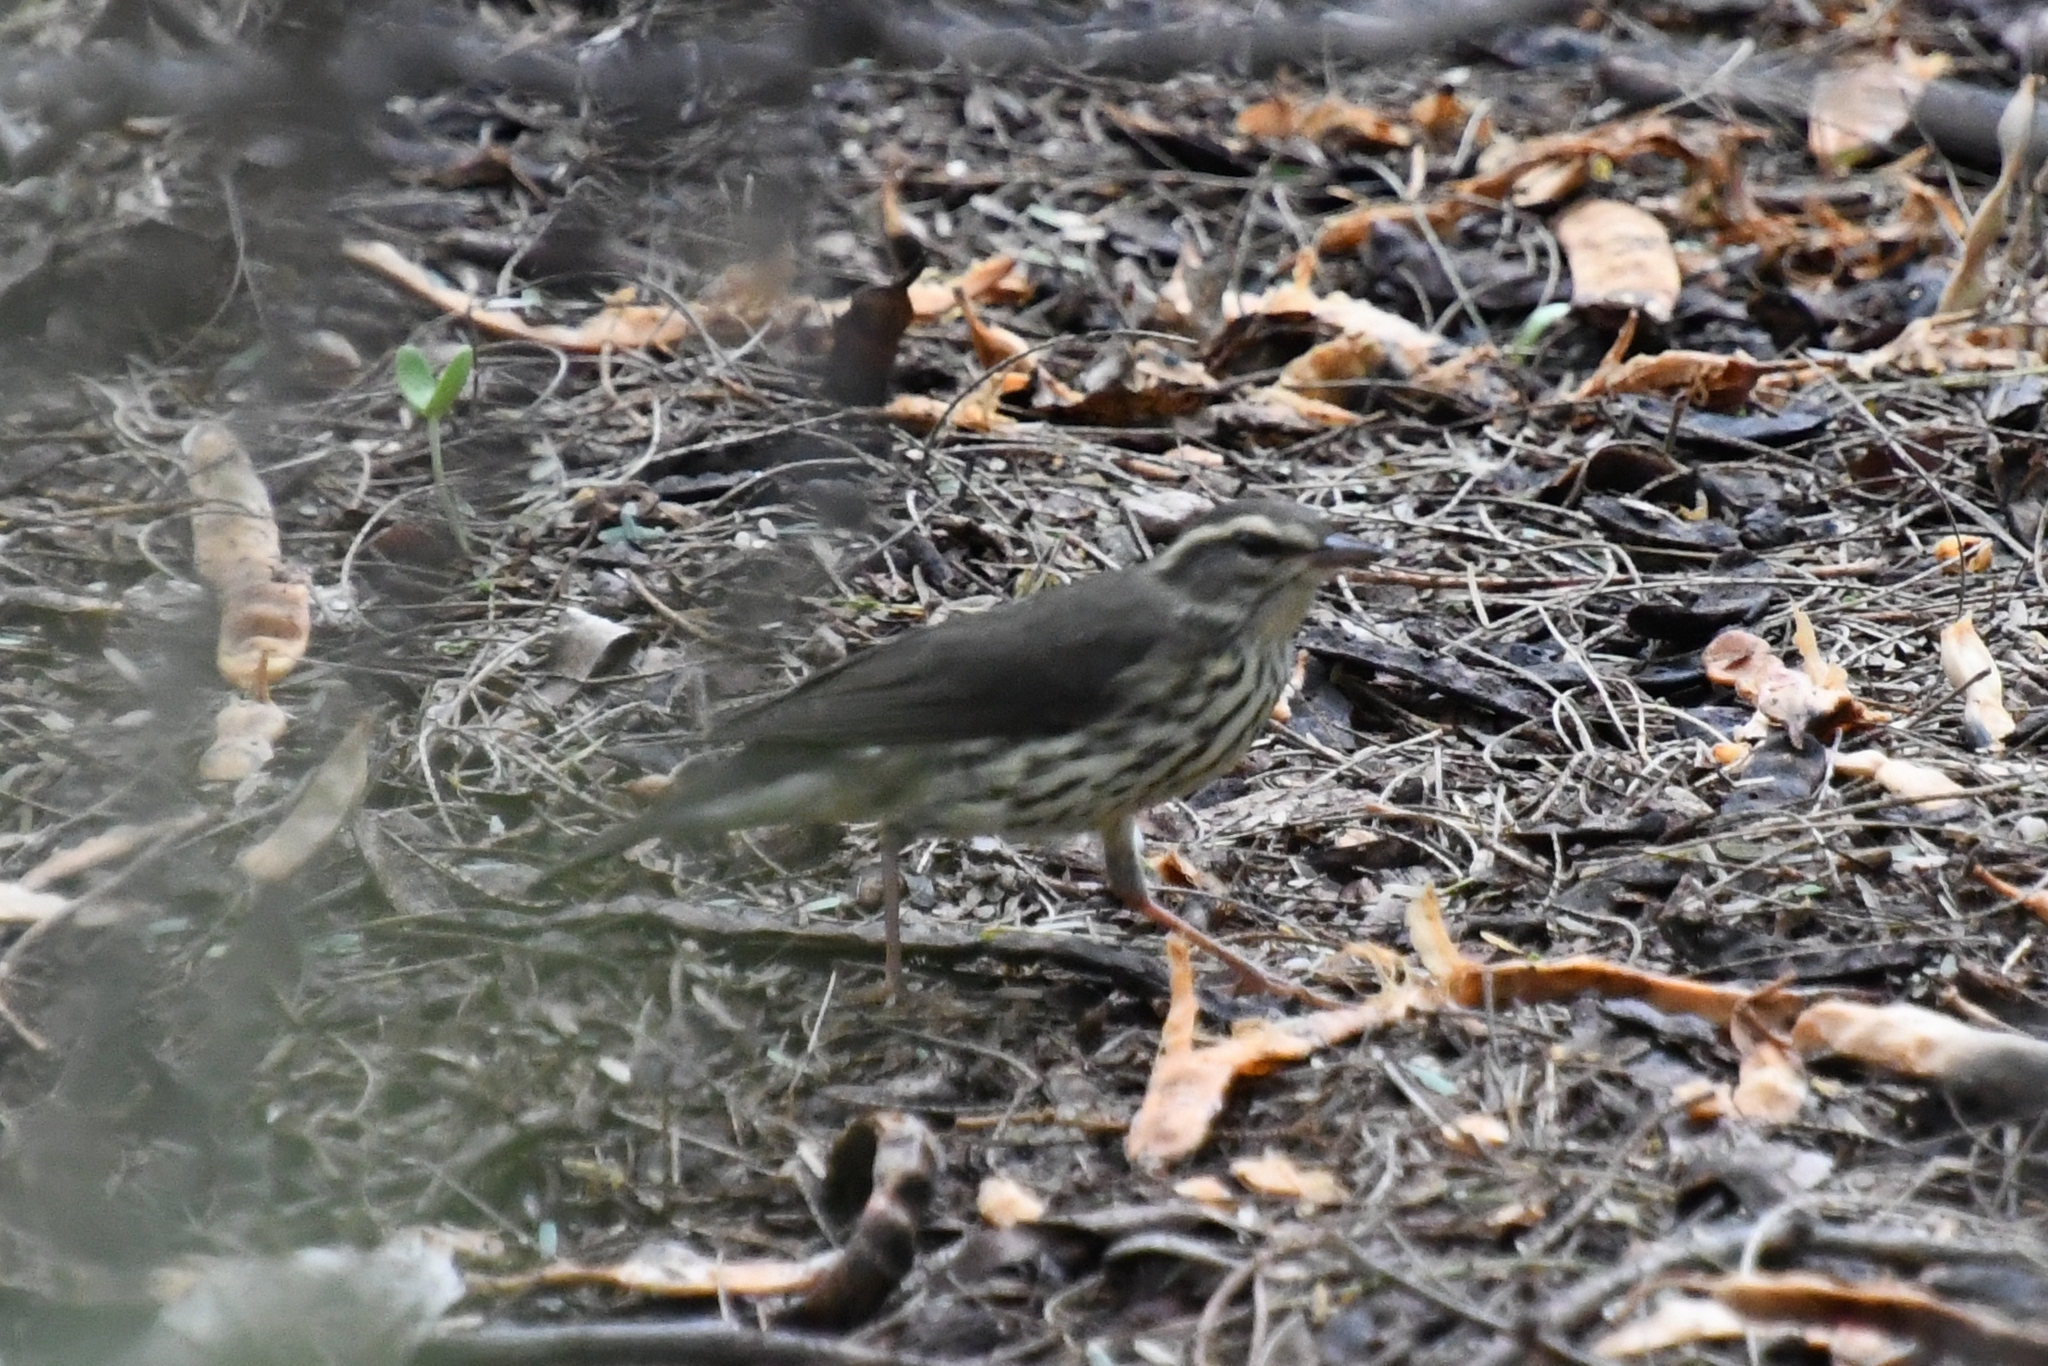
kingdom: Animalia
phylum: Chordata
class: Aves
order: Passeriformes
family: Parulidae
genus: Parkesia
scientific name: Parkesia noveboracensis
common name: Northern waterthrush
